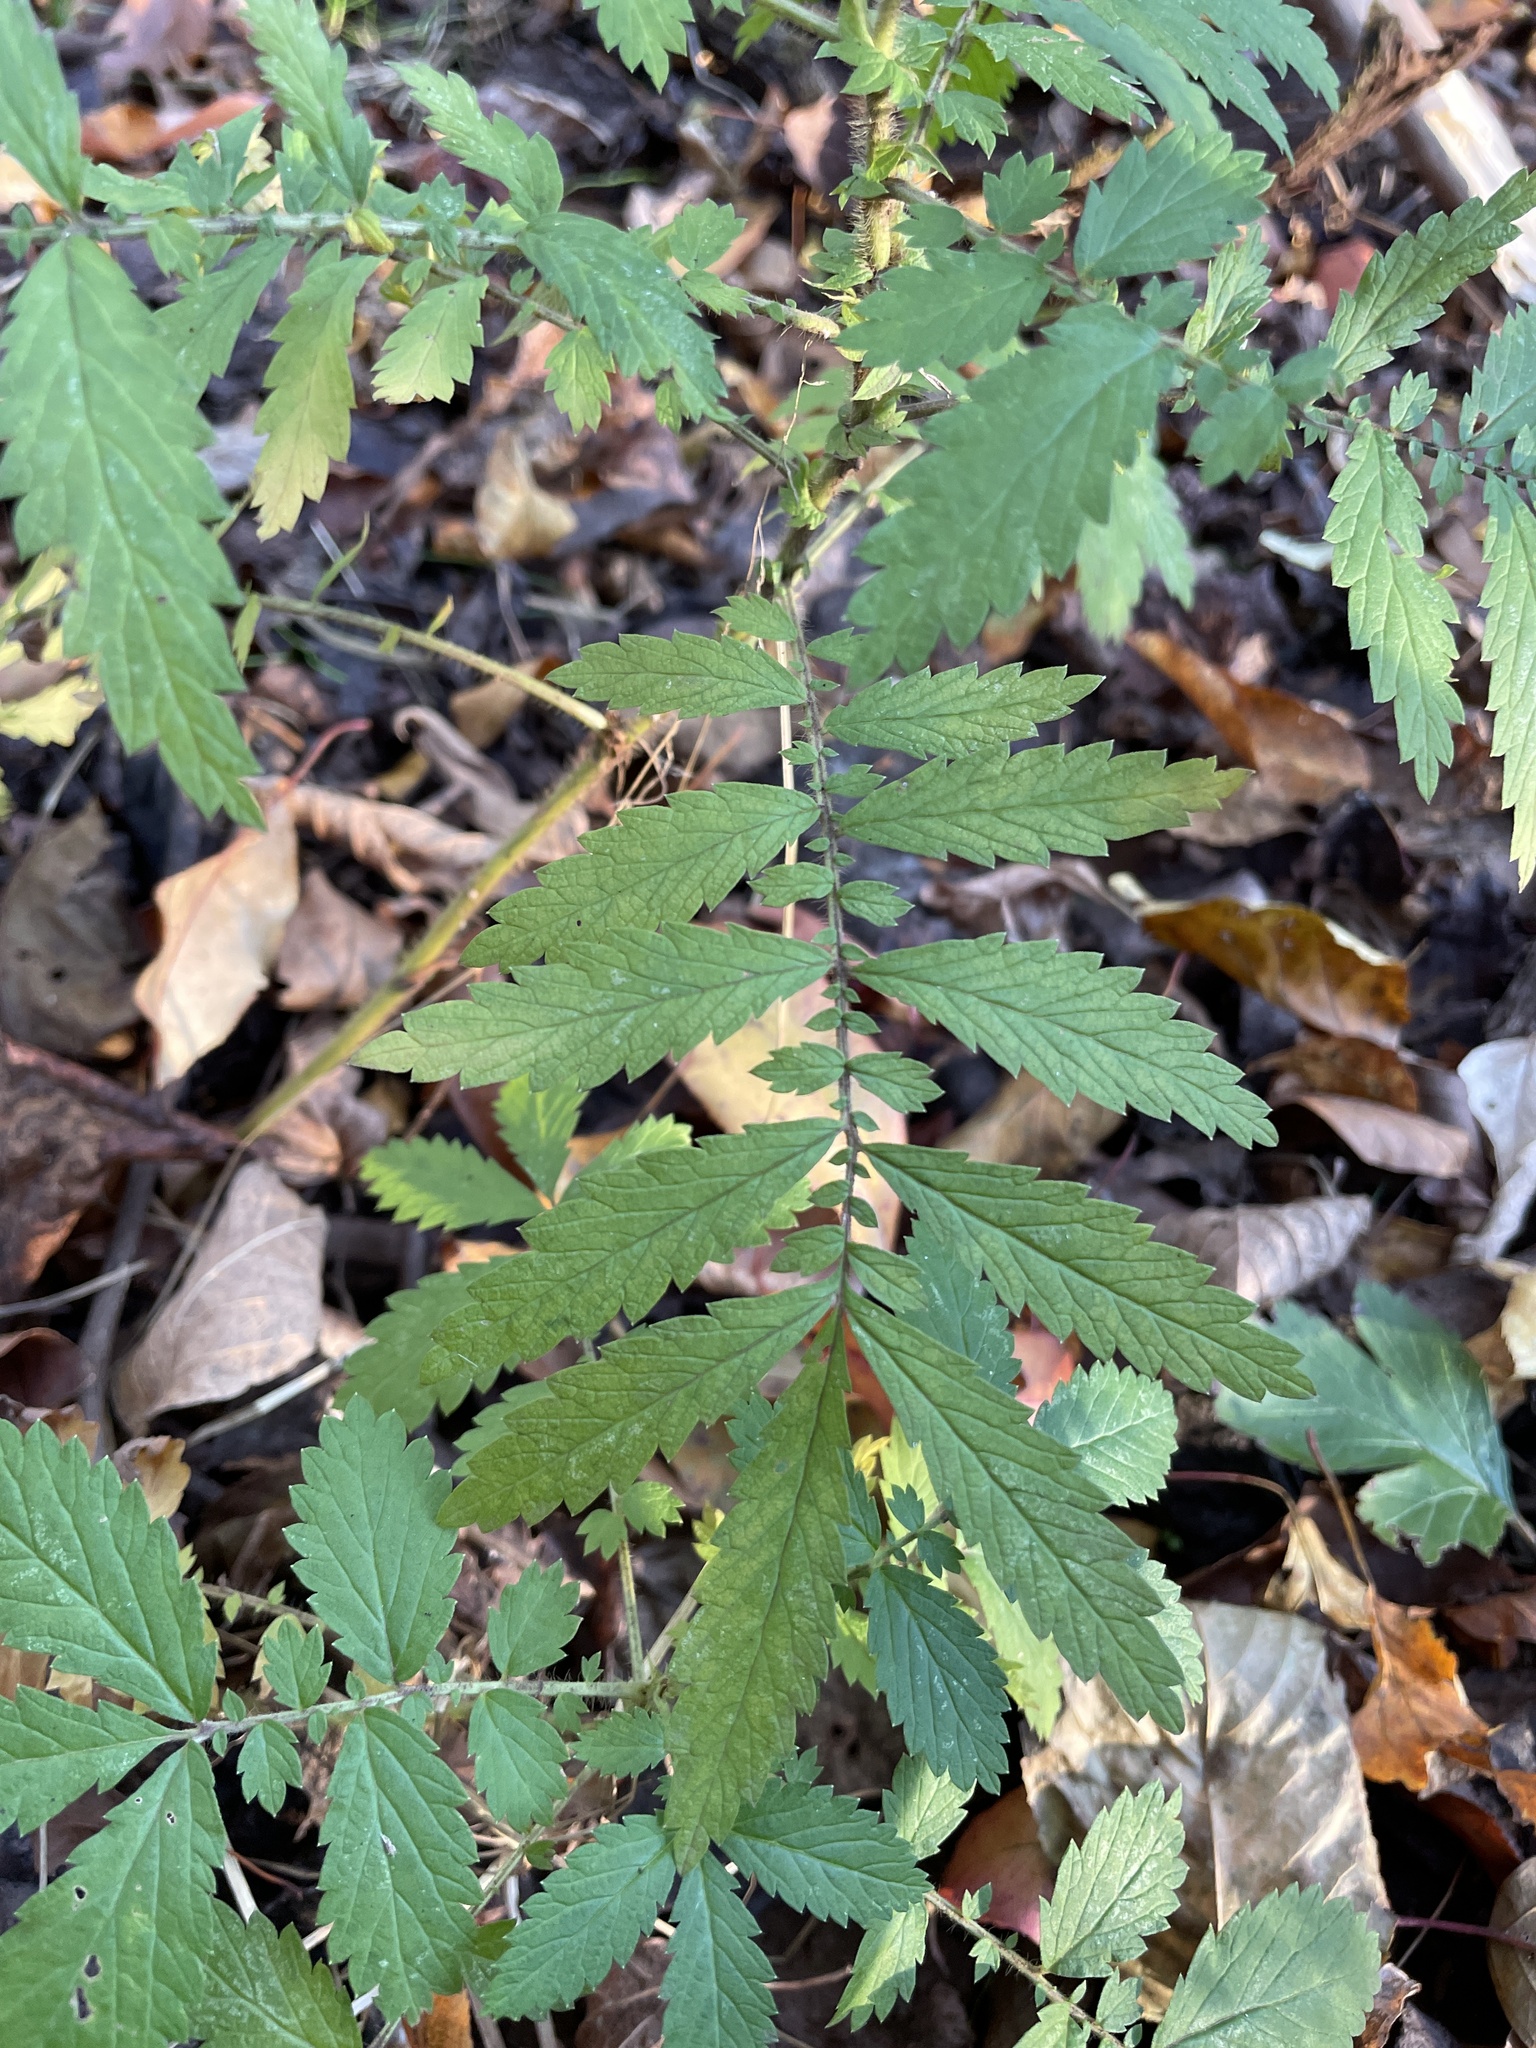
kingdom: Plantae
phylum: Tracheophyta
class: Magnoliopsida
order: Rosales
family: Rosaceae
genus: Agrimonia
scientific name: Agrimonia parviflora
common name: Harvest-lice
